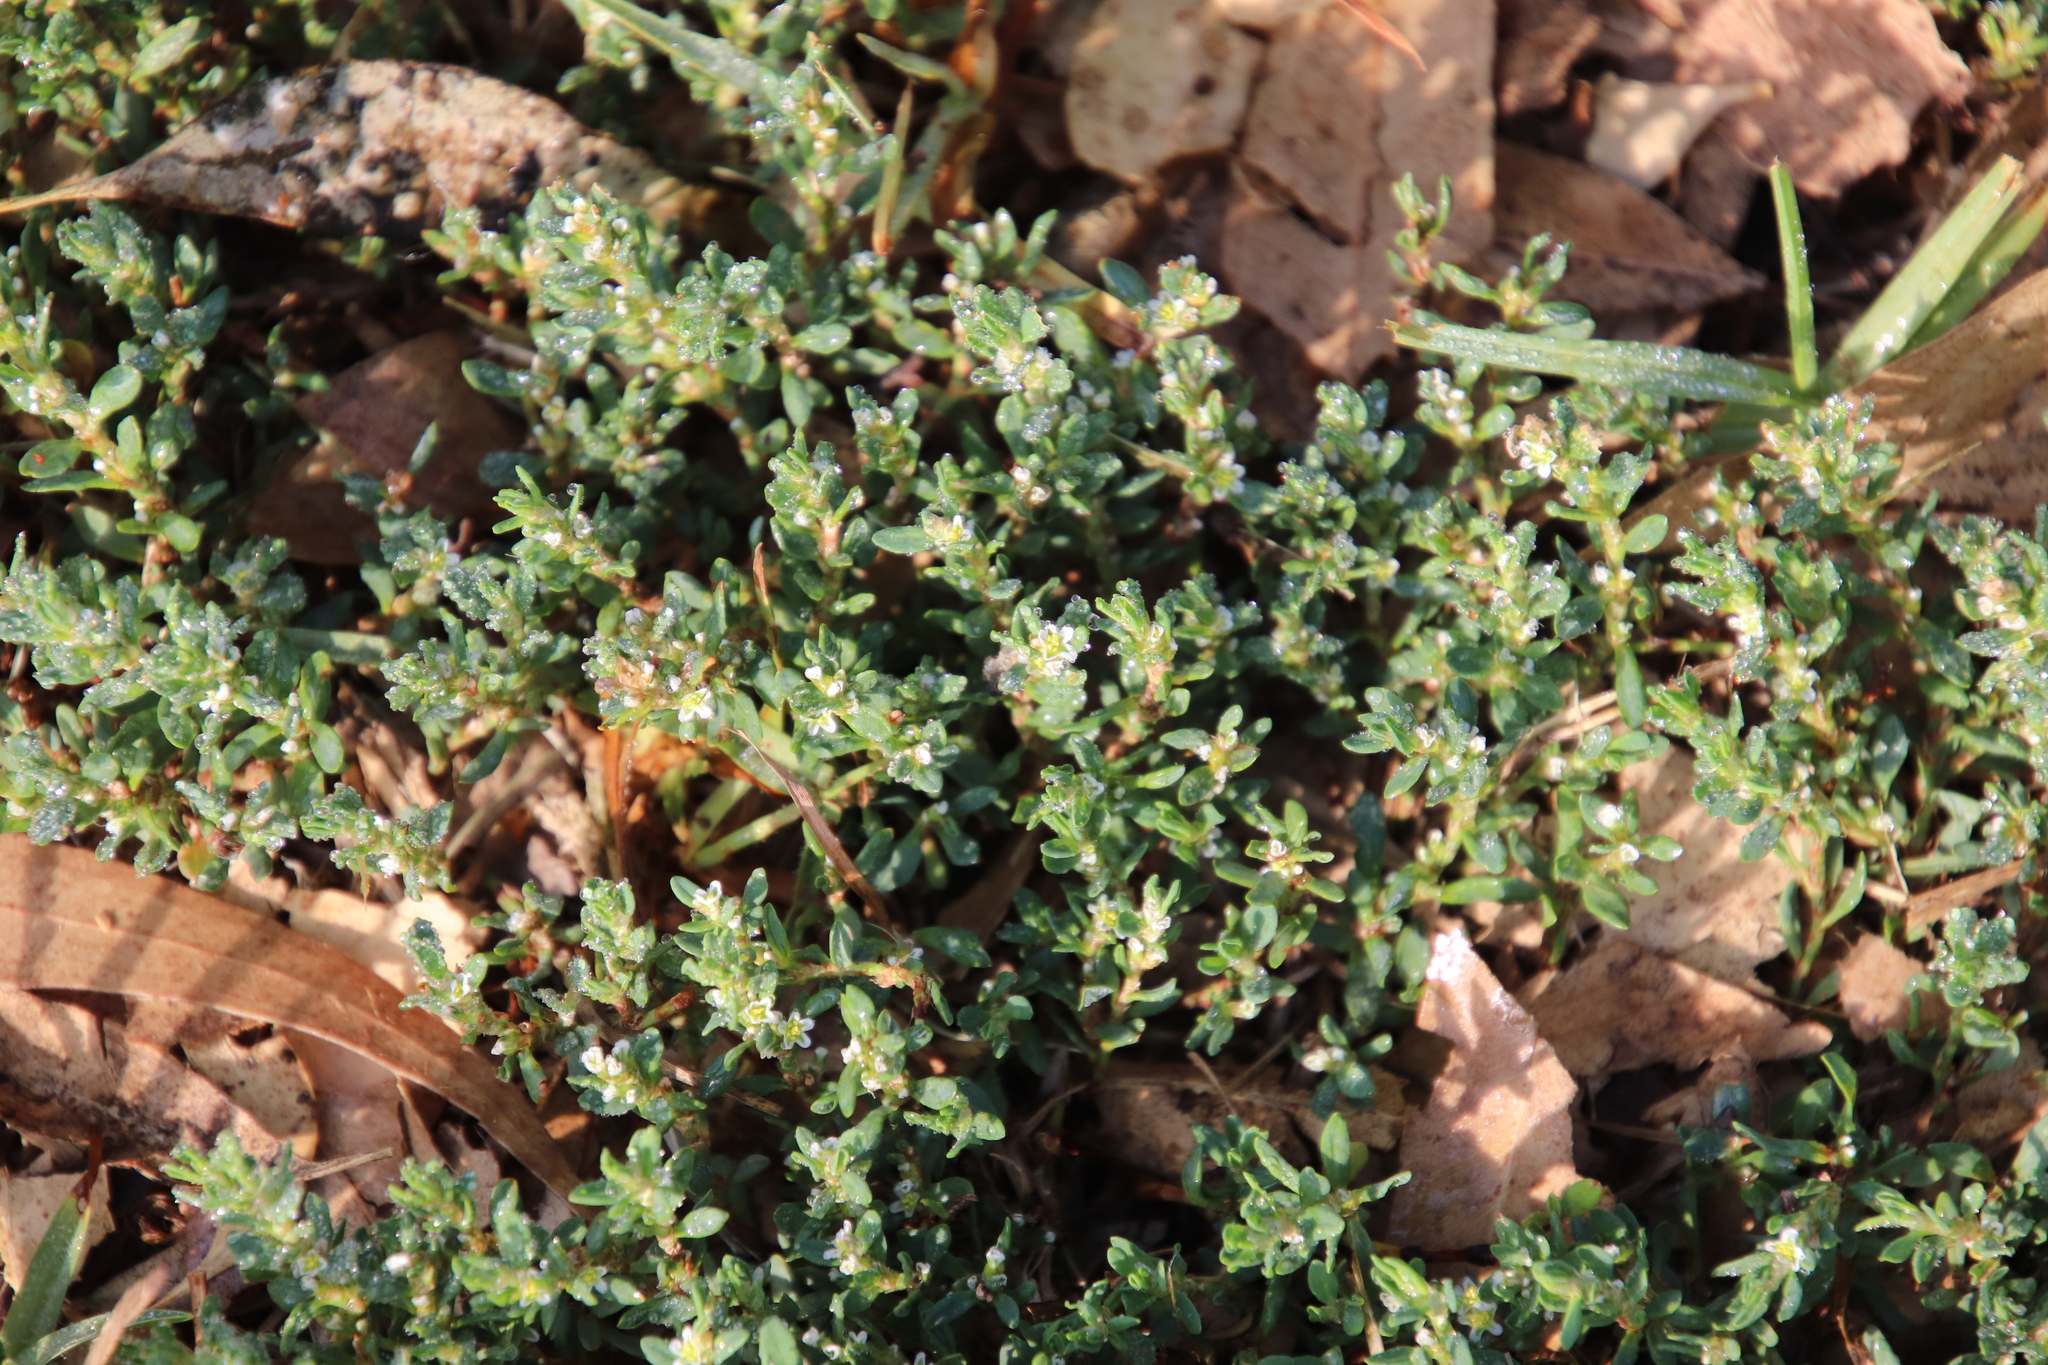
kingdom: Plantae
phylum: Tracheophyta
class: Magnoliopsida
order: Caryophyllales
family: Polygonaceae
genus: Polygonum
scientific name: Polygonum aviculare
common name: Prostrate knotweed
